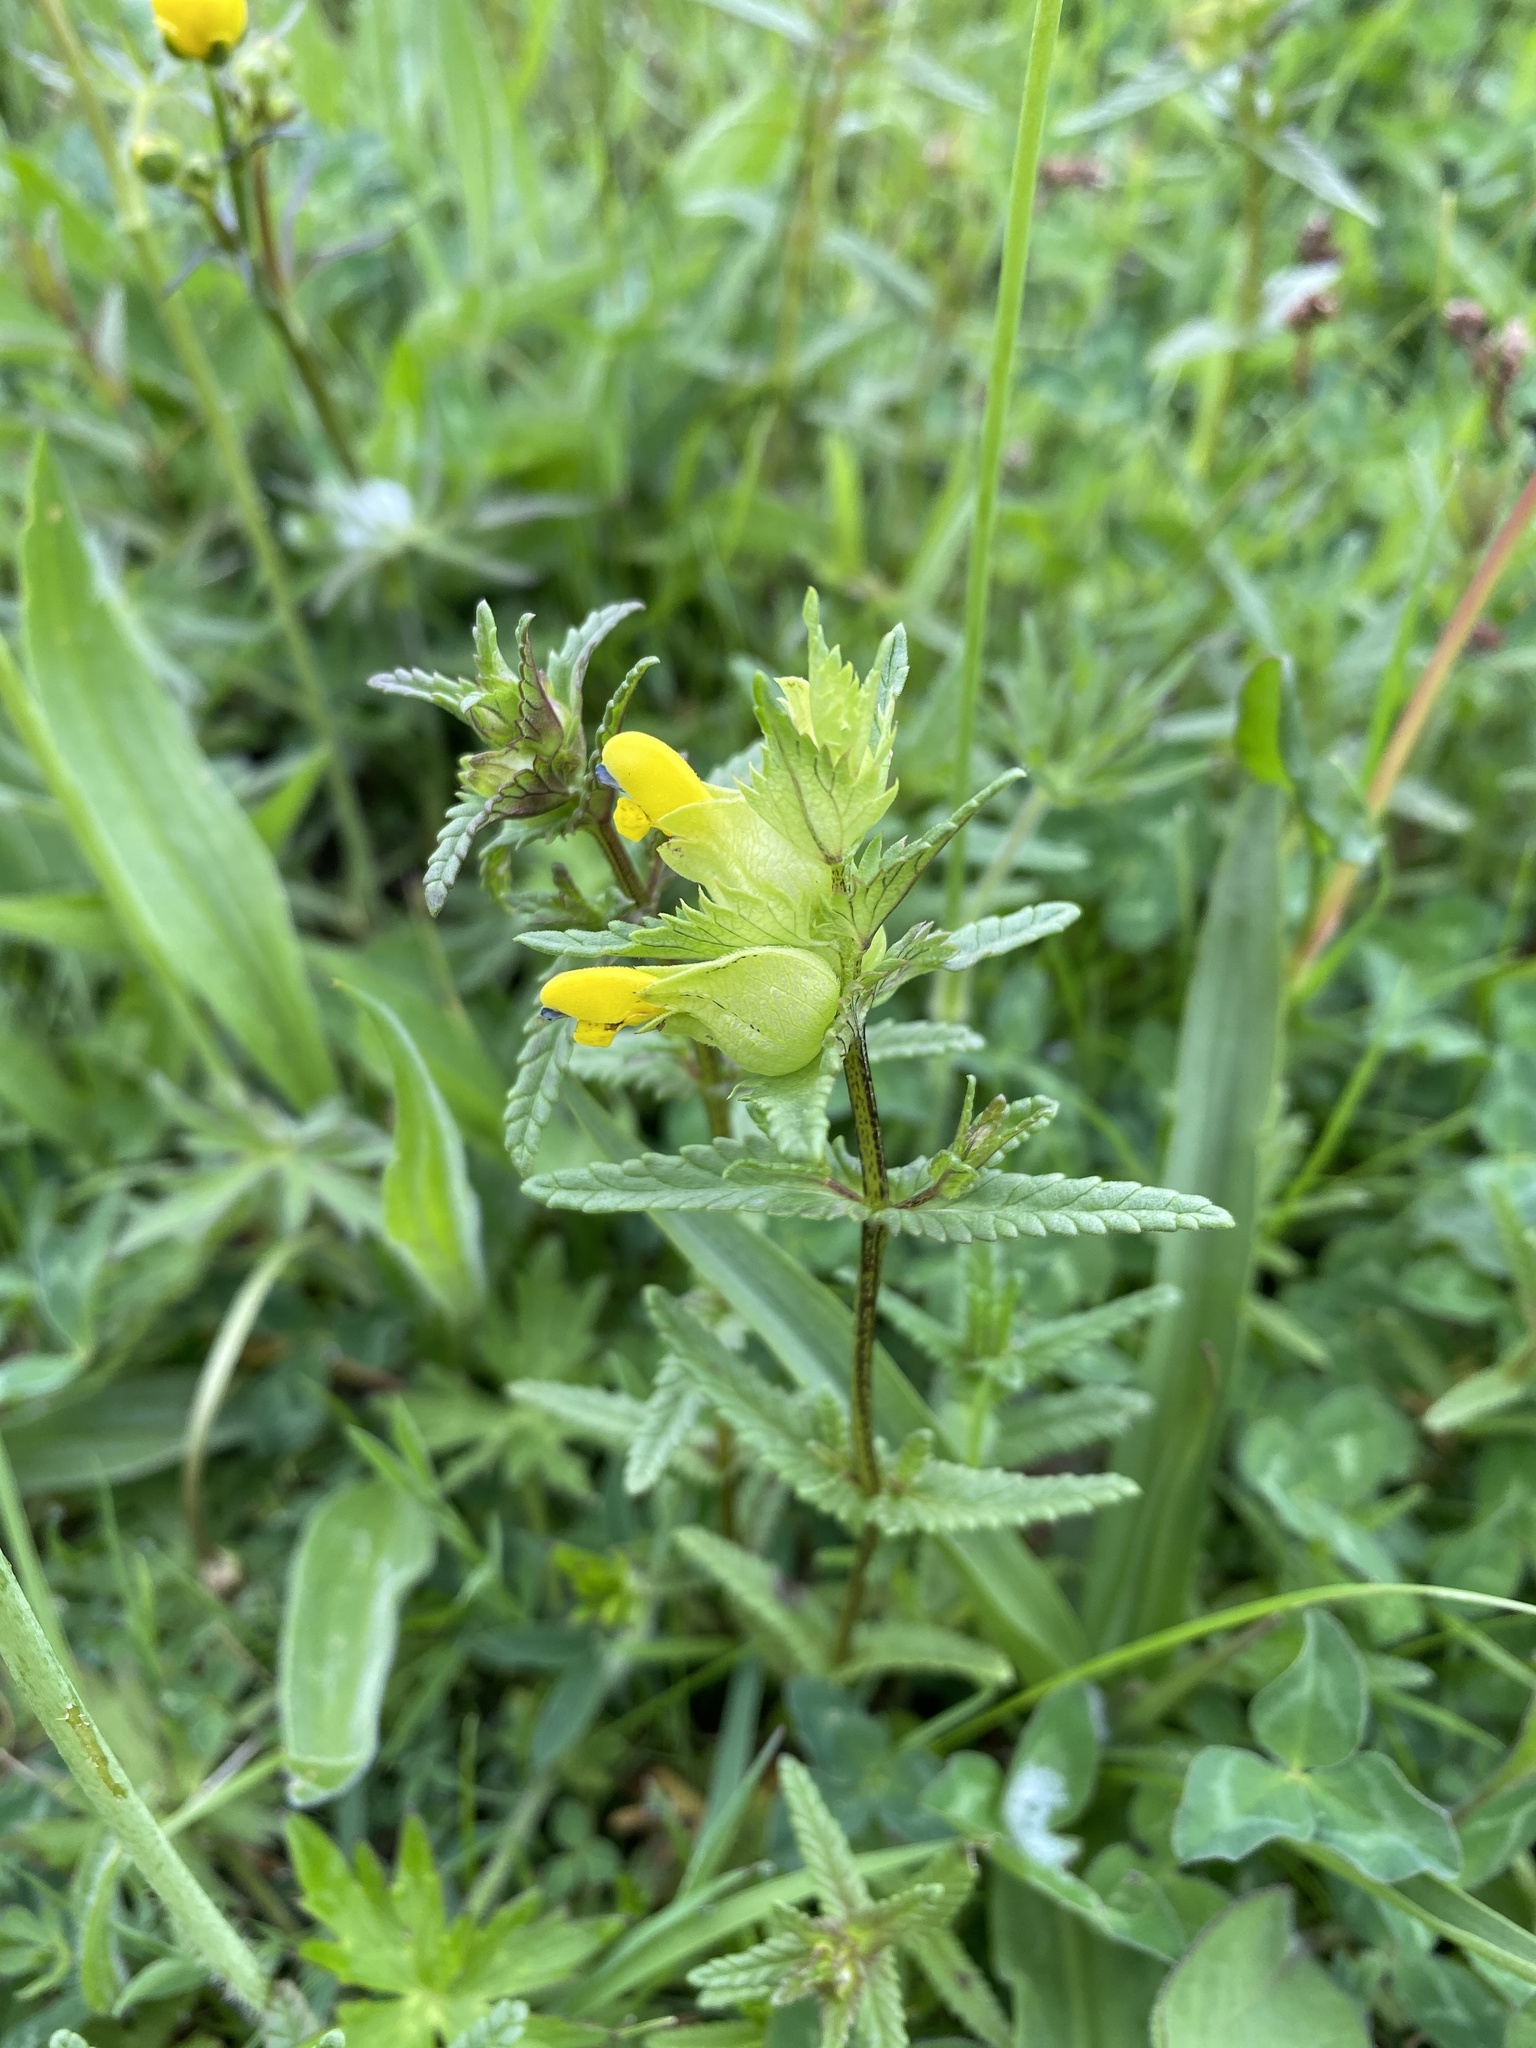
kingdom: Plantae
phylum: Tracheophyta
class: Magnoliopsida
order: Lamiales
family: Orobanchaceae
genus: Rhinanthus
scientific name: Rhinanthus minor
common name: Yellow-rattle
